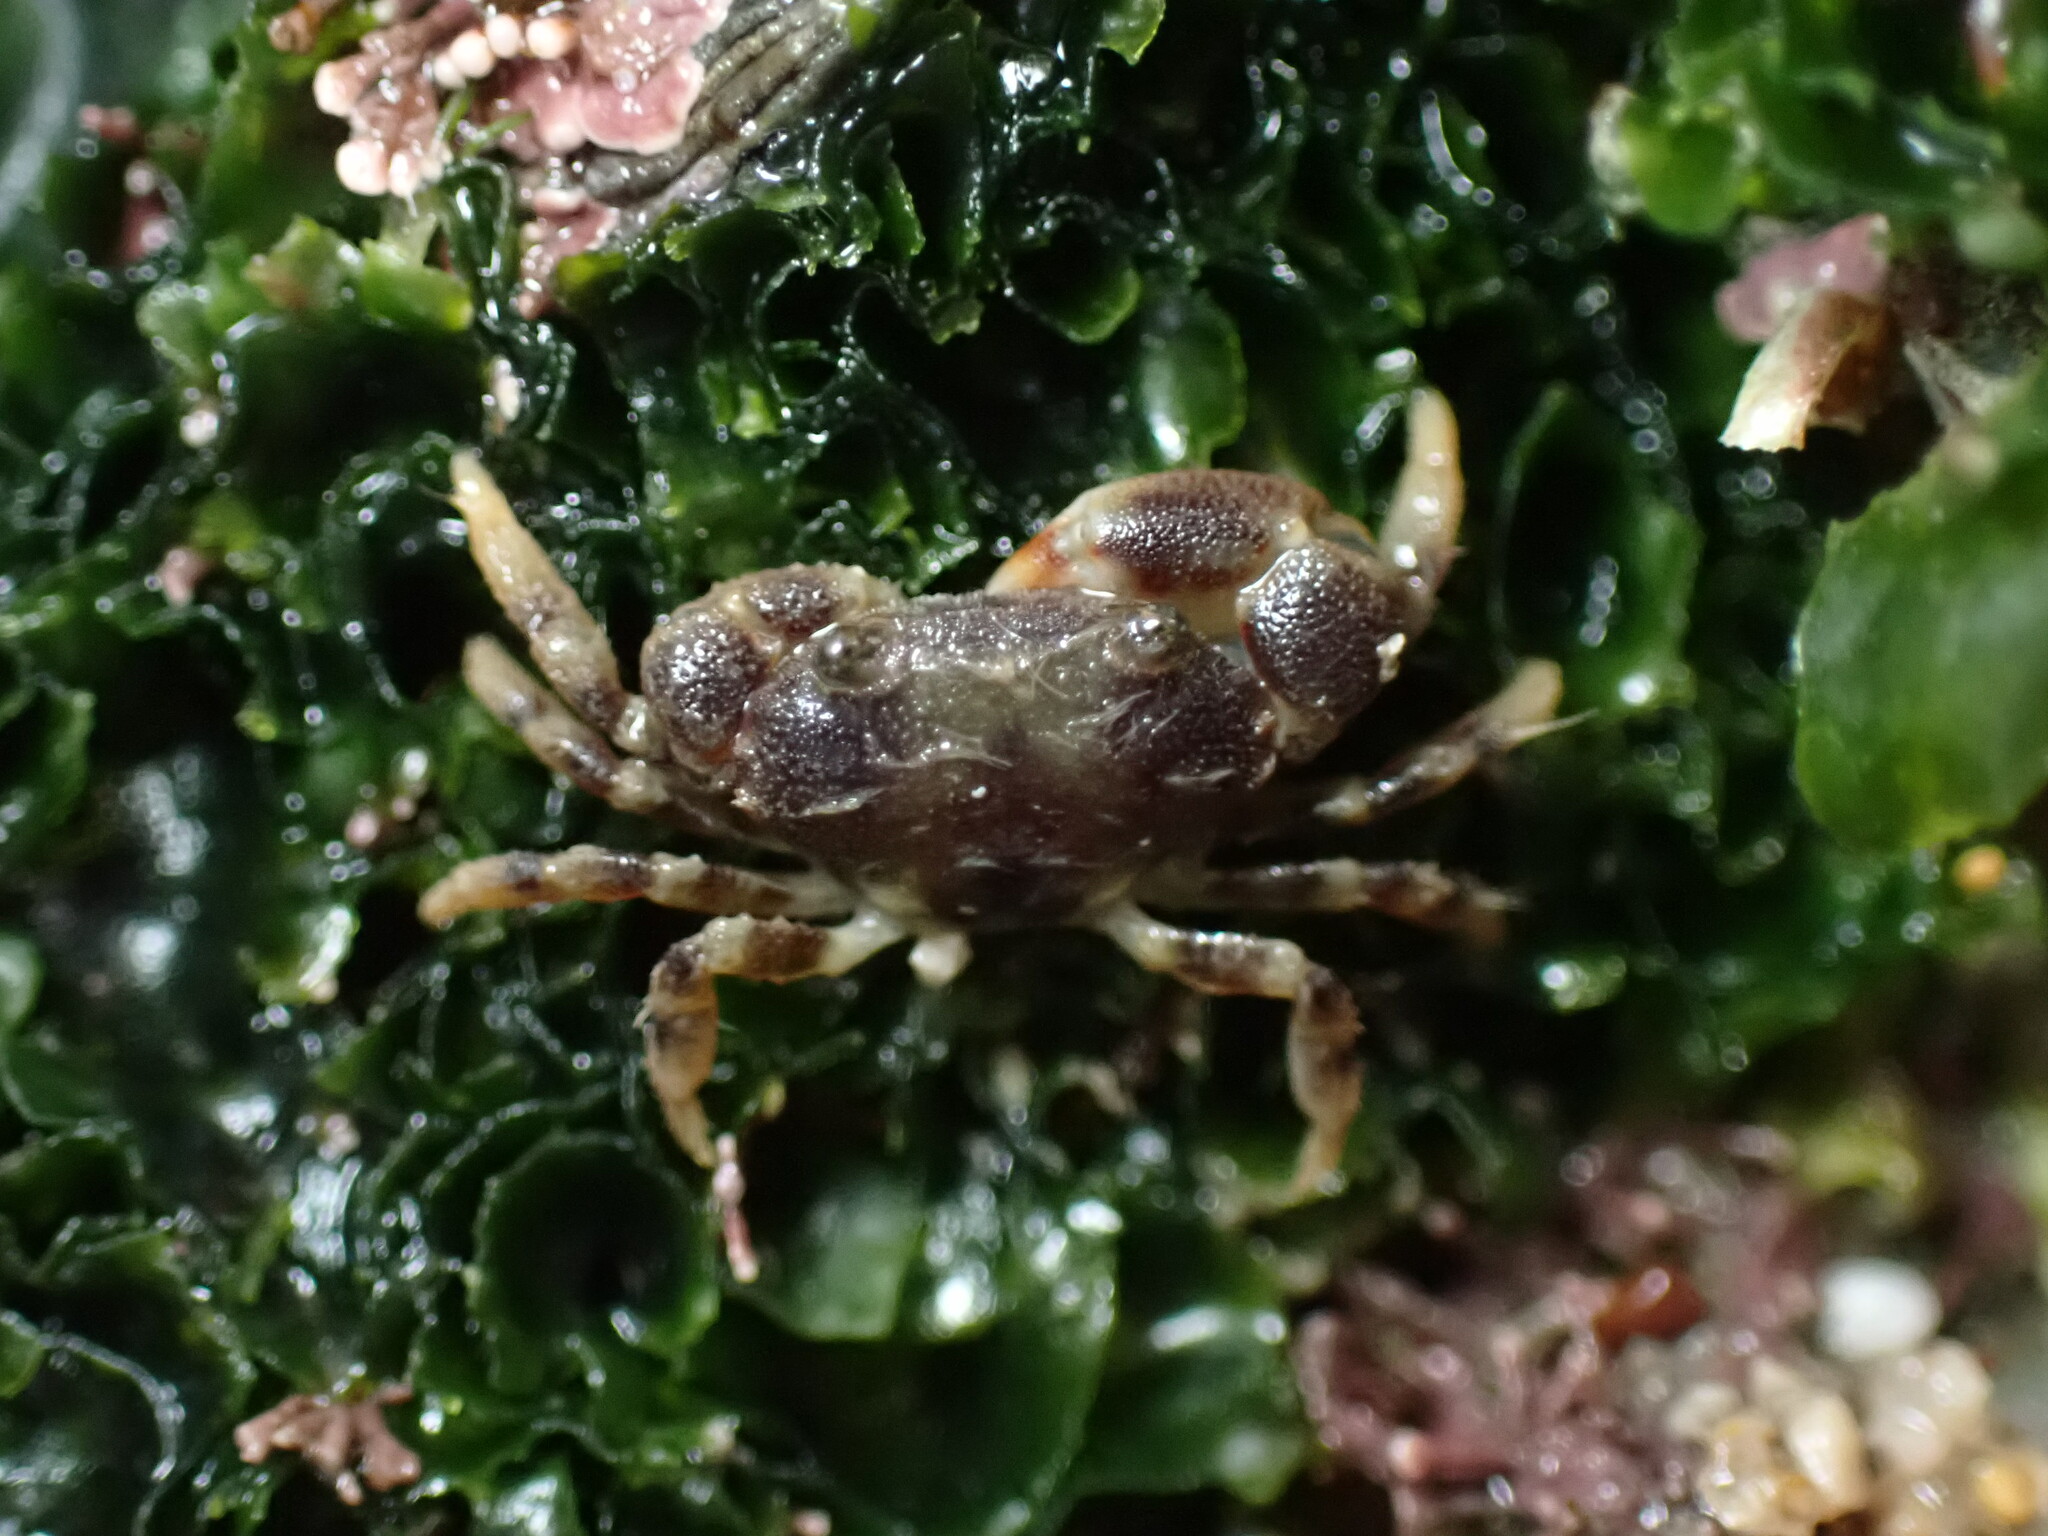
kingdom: Animalia
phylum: Arthropoda
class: Malacostraca
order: Decapoda
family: Pilumnidae
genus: Heteropanope
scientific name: Heteropanope glabra
